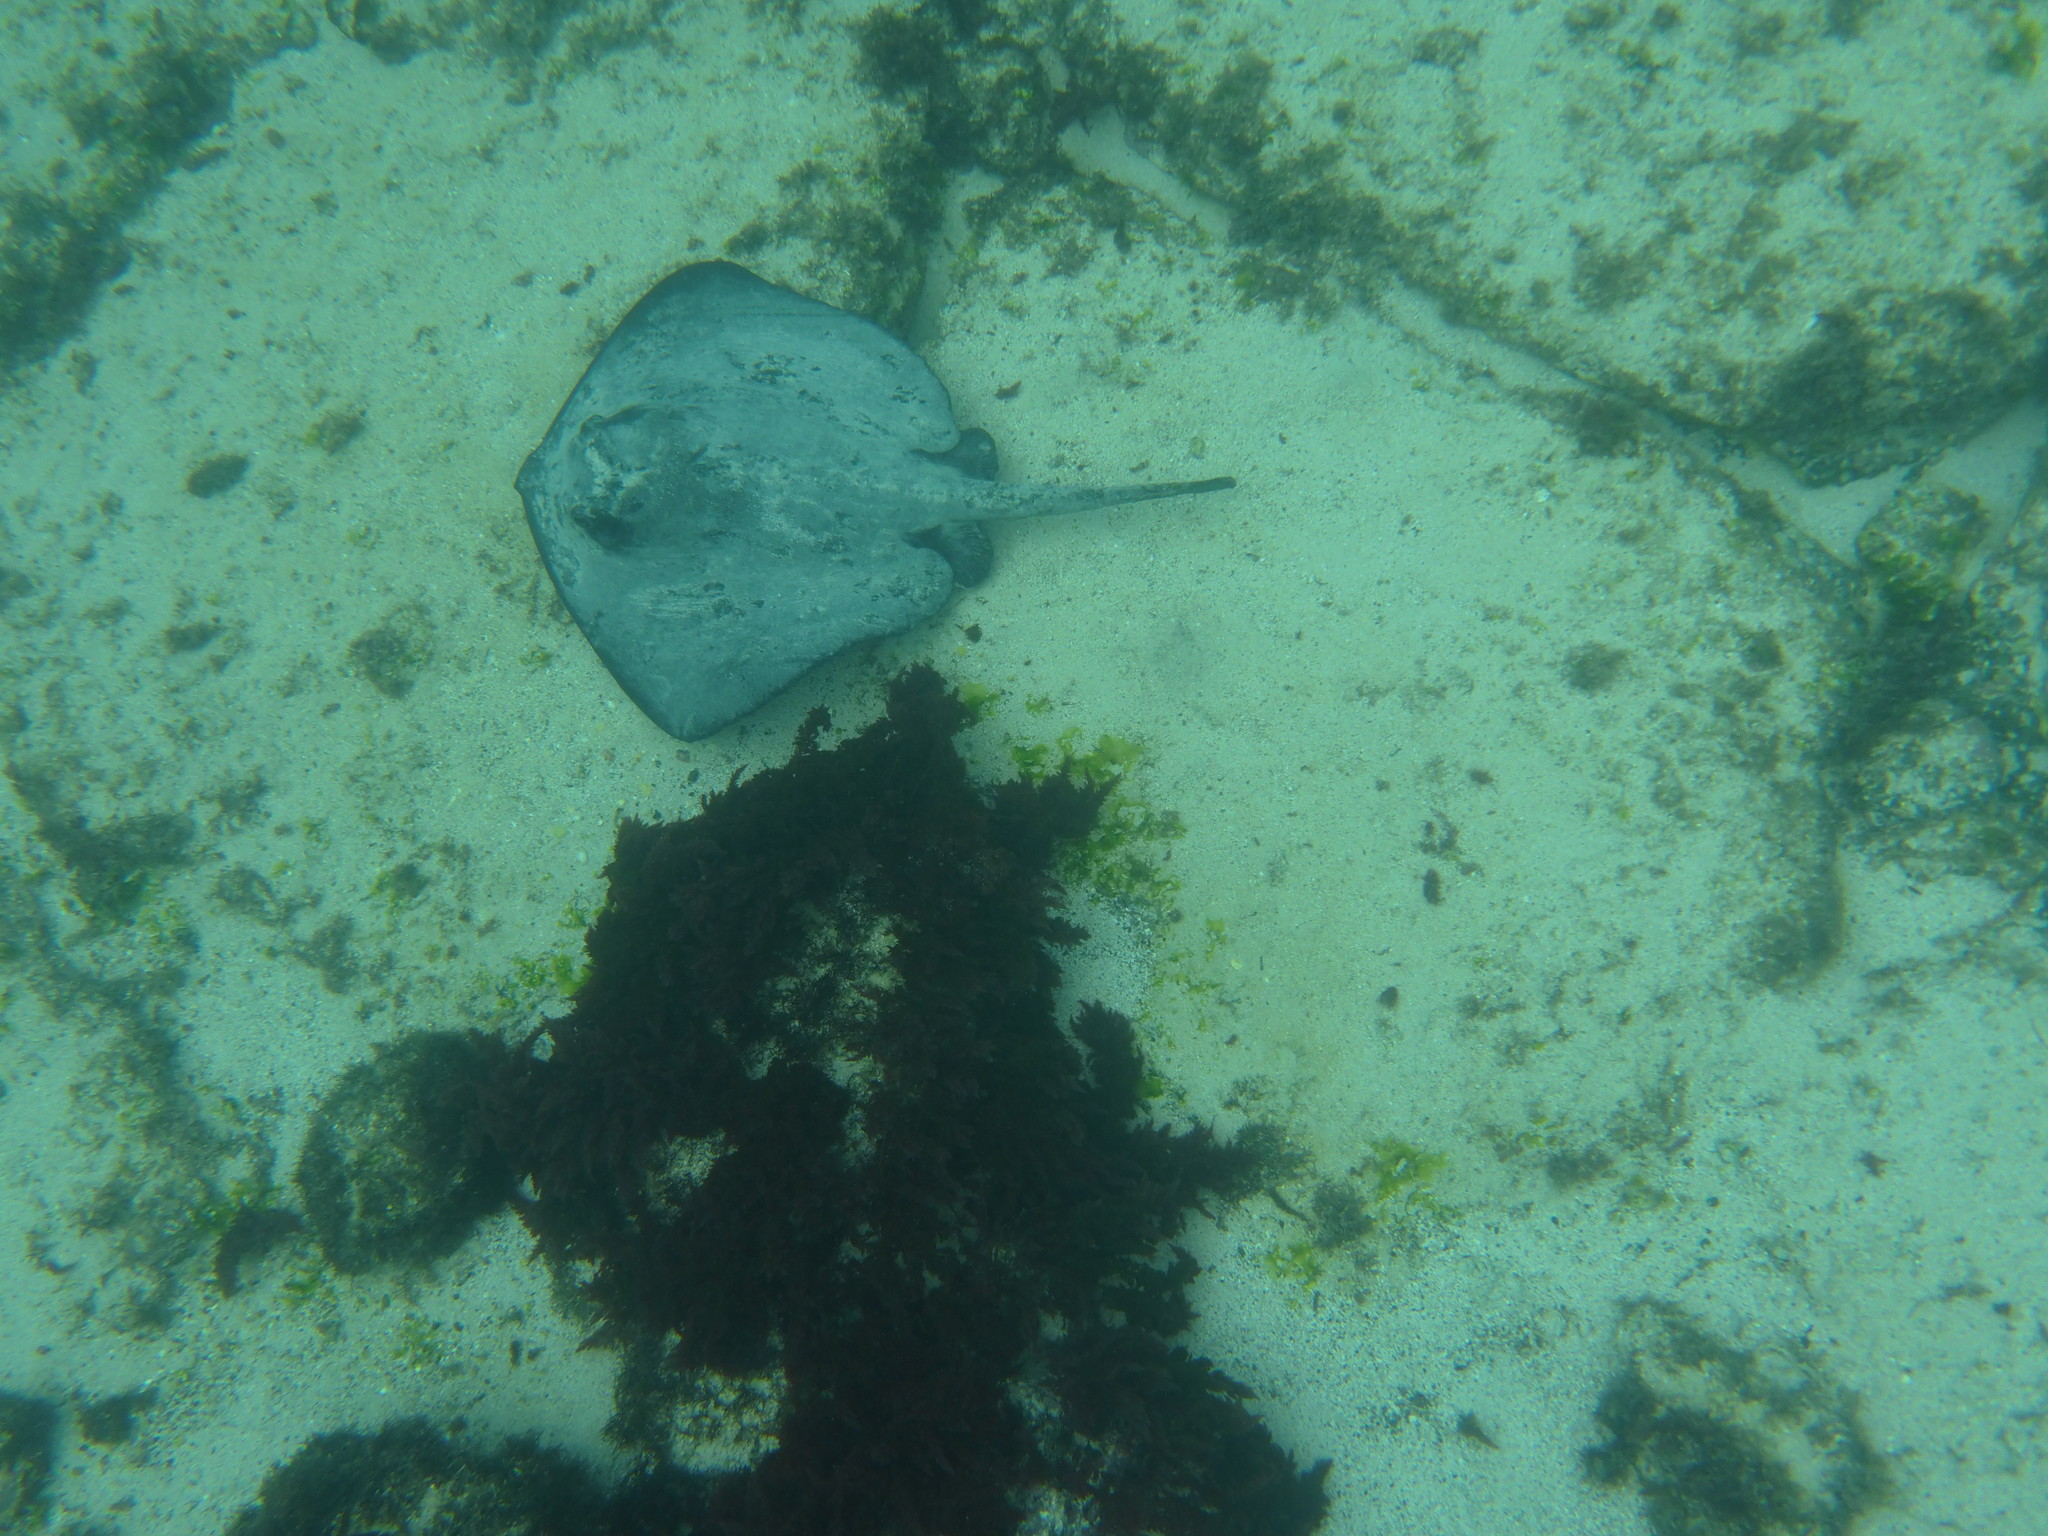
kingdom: Animalia
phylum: Chordata
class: Elasmobranchii
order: Myliobatiformes
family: Dasyatidae
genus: Hypanus
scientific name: Hypanus dipterurus
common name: Diamond stingray
